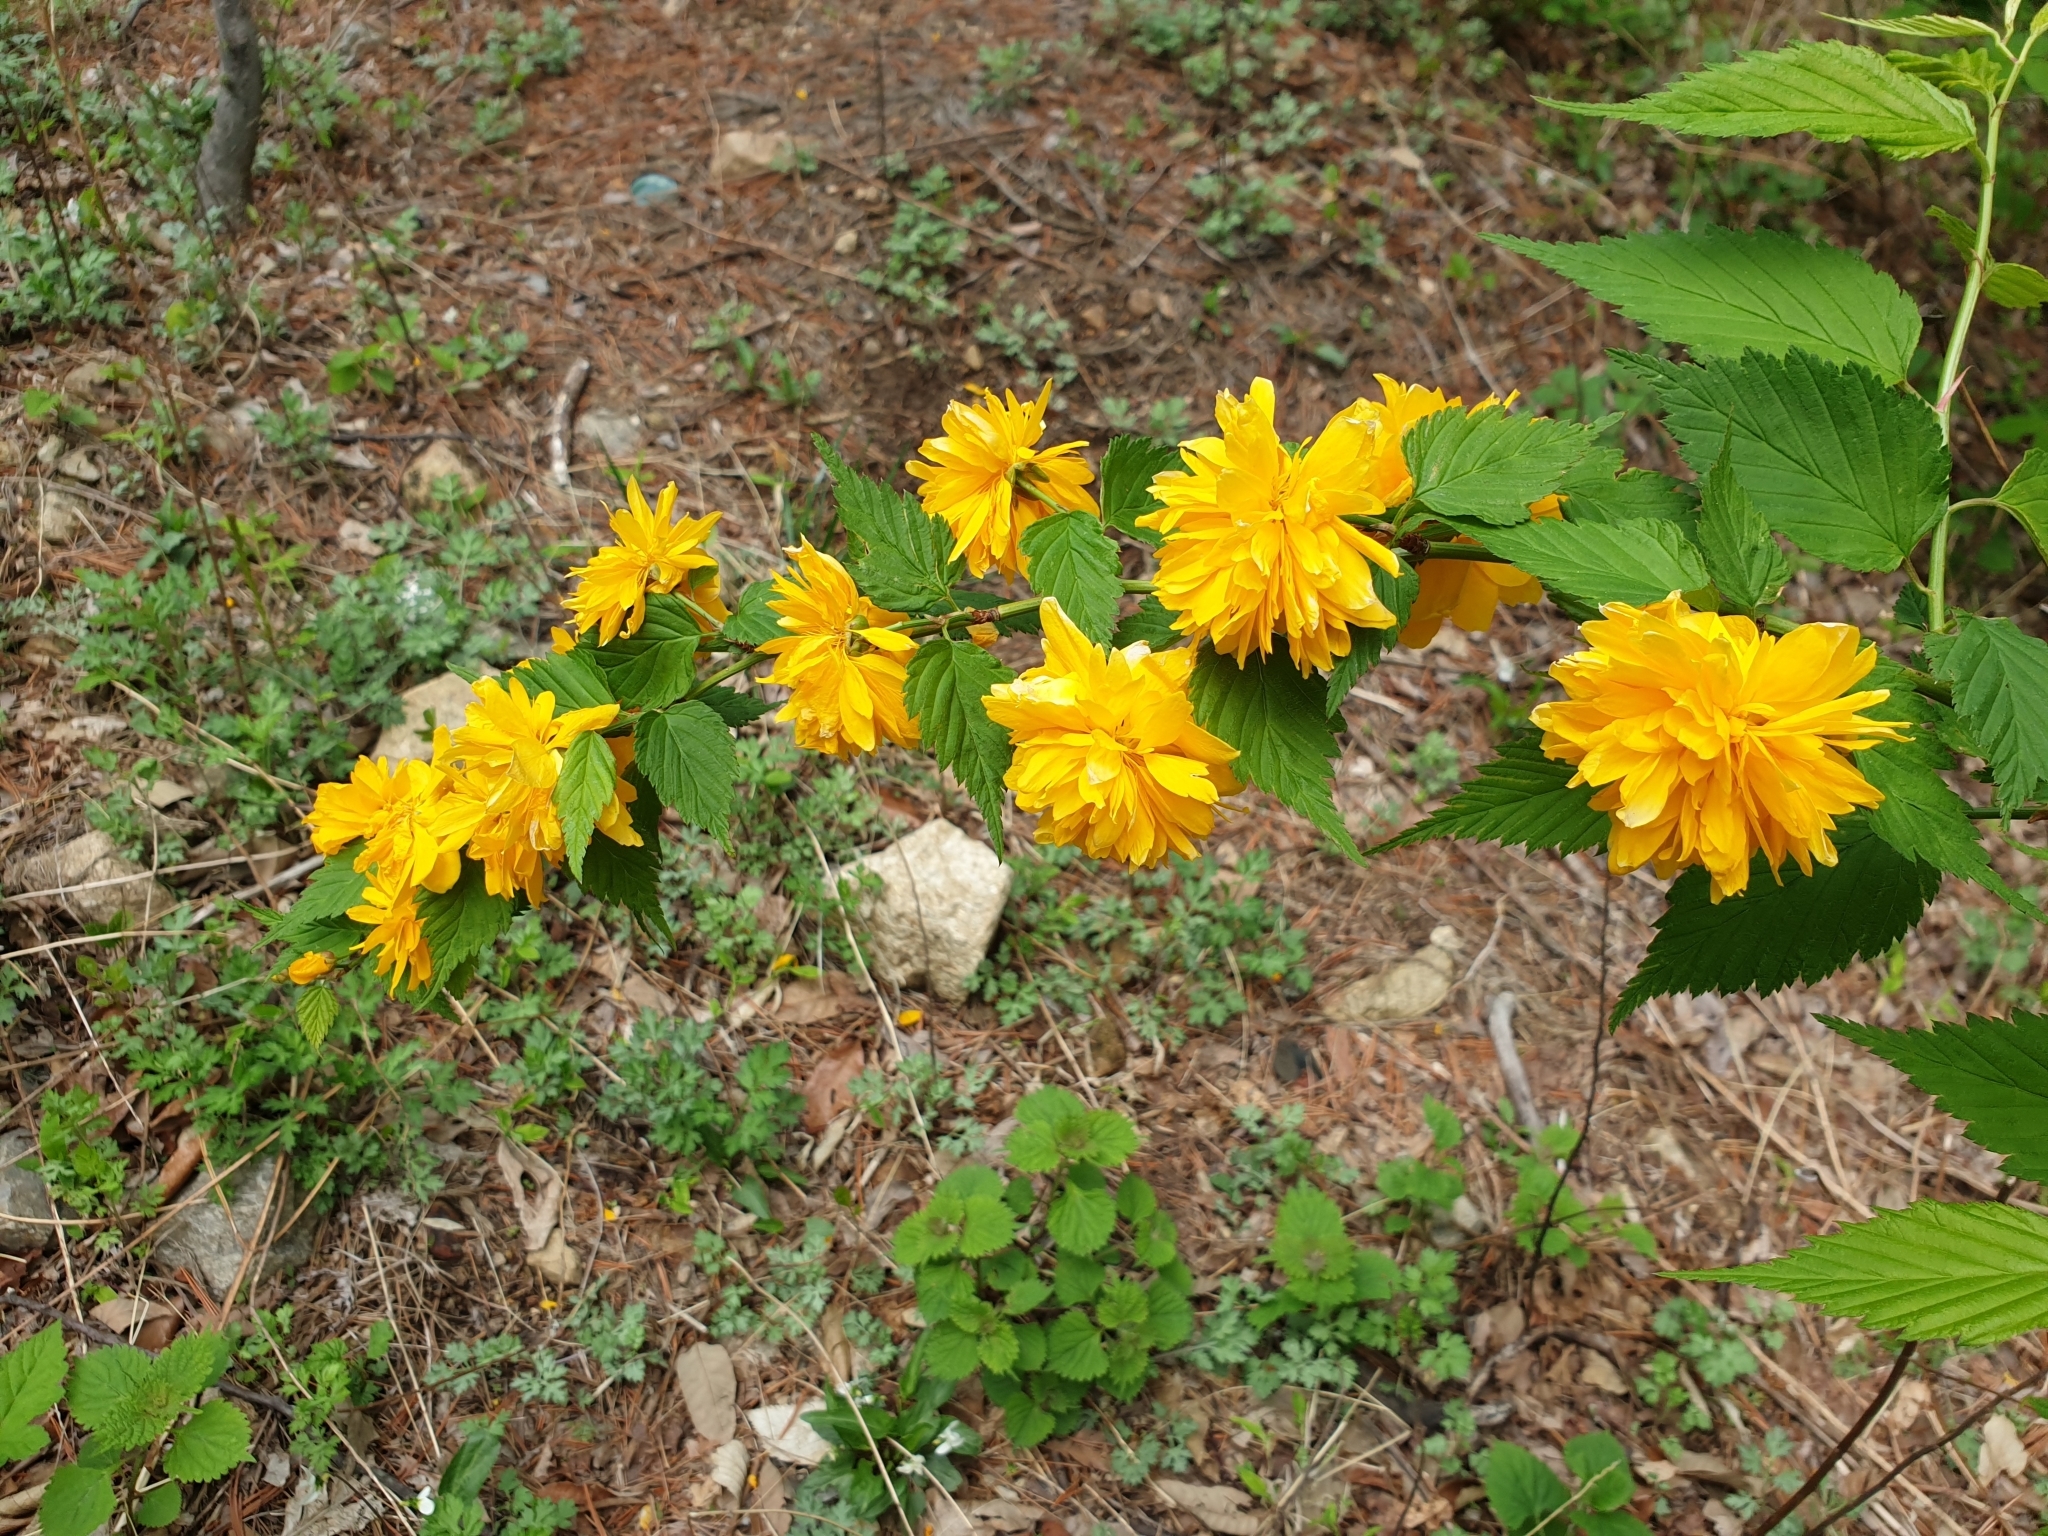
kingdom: Plantae
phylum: Tracheophyta
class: Magnoliopsida
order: Rosales
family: Rosaceae
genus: Kerria
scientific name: Kerria japonica
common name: Japanese kerria
